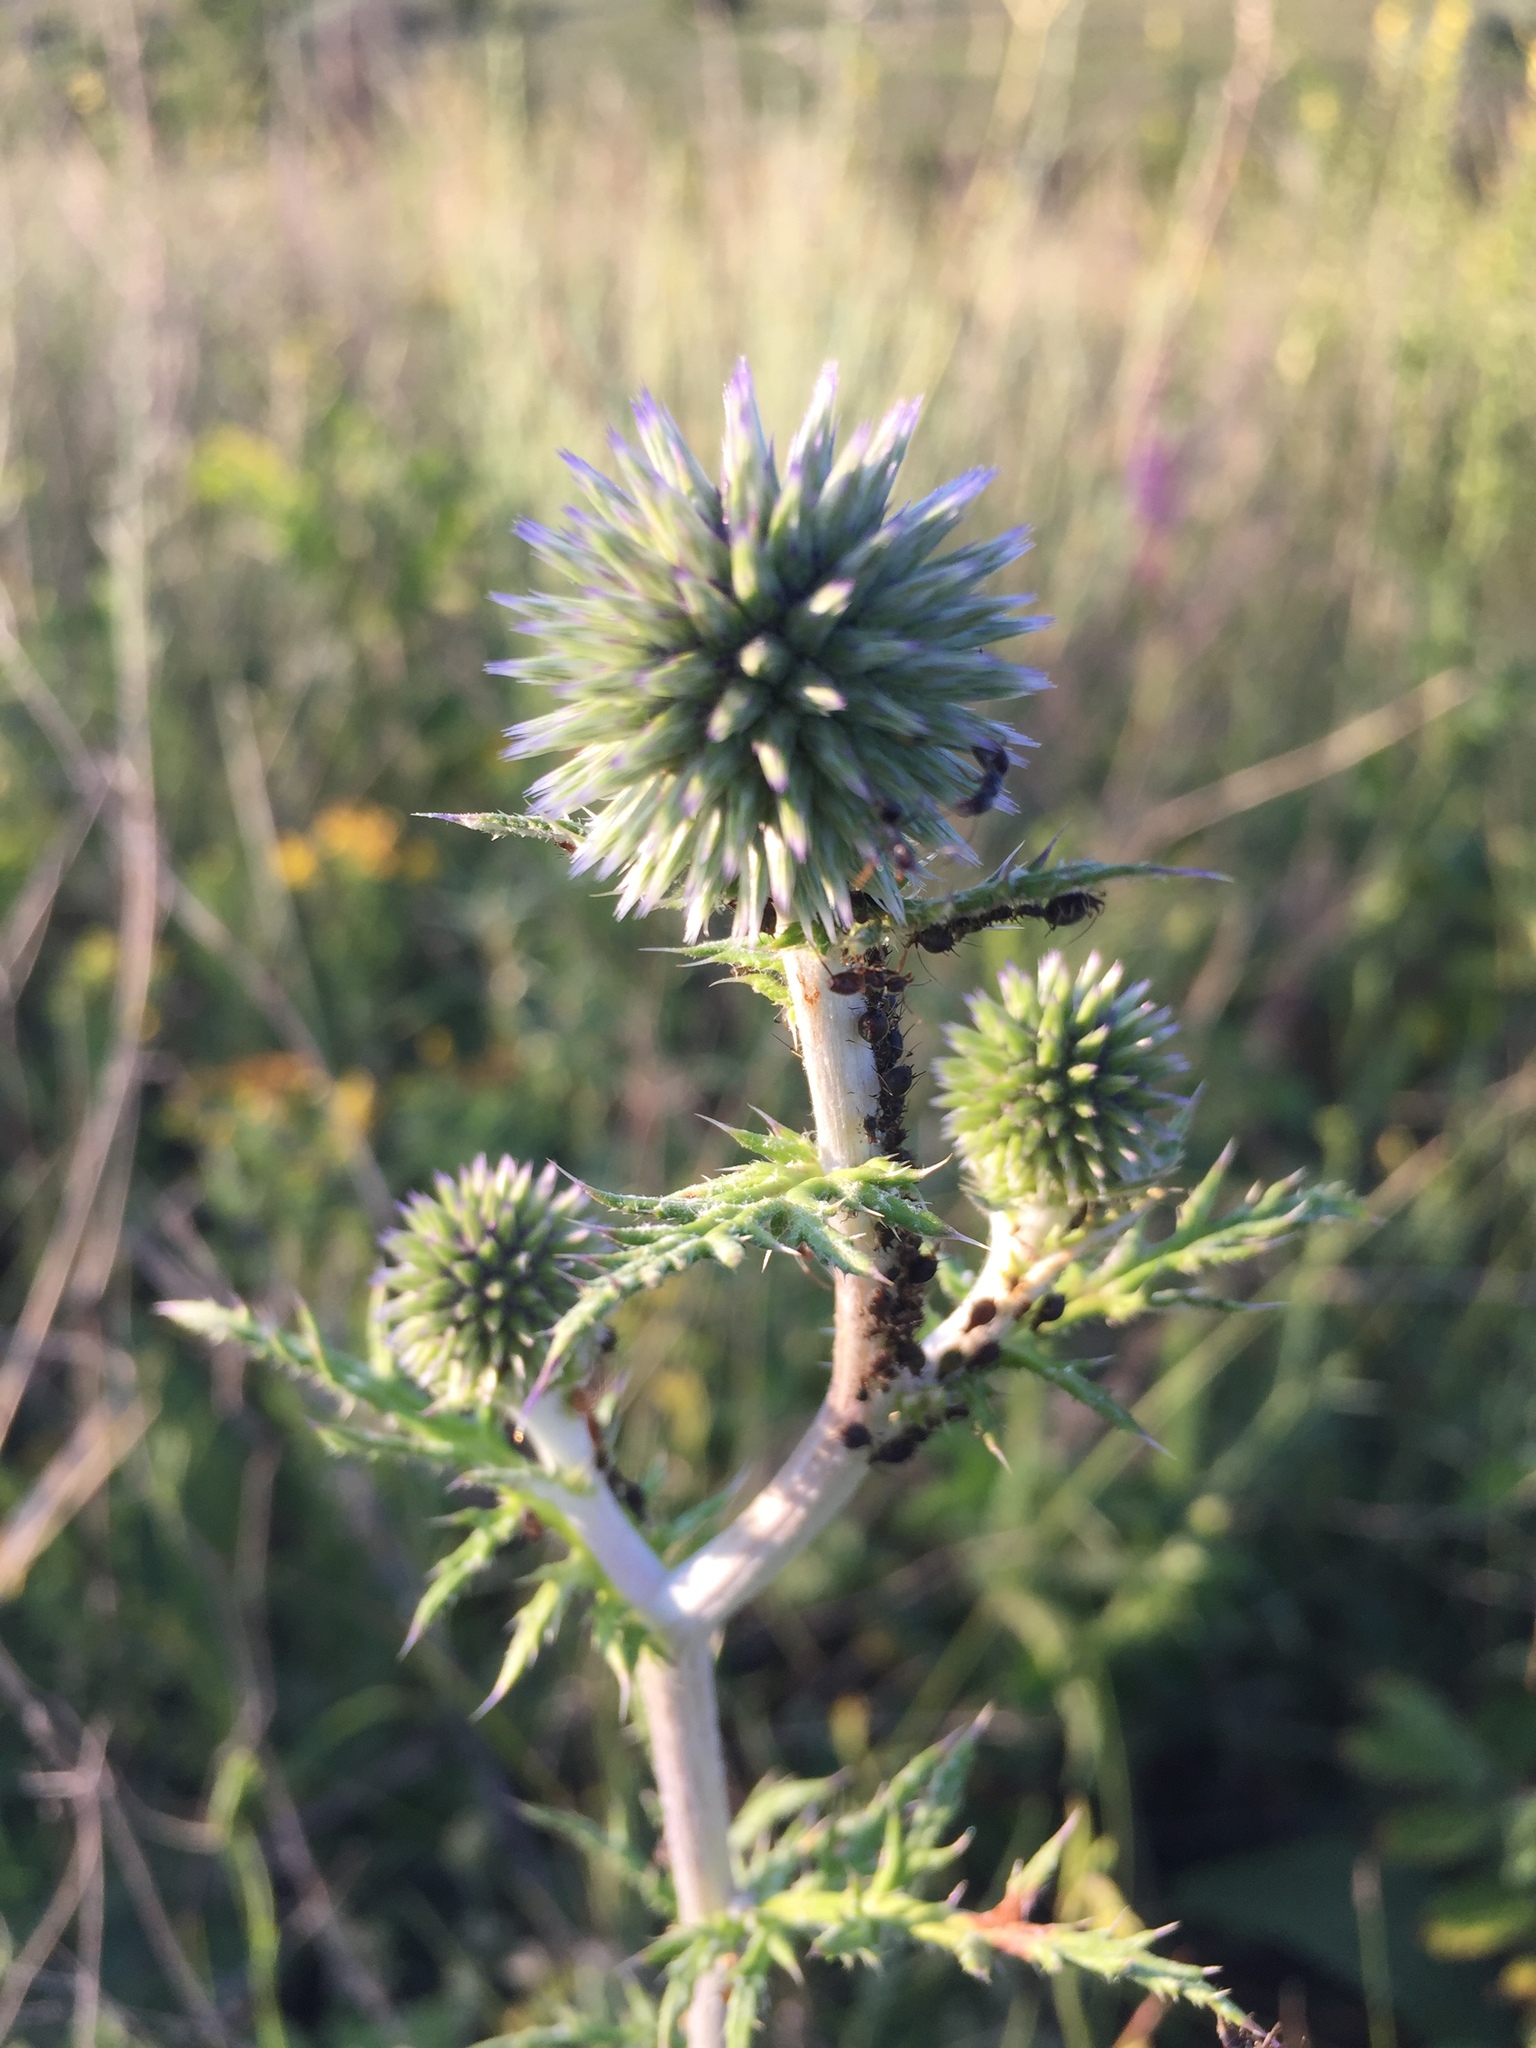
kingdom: Plantae
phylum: Tracheophyta
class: Magnoliopsida
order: Asterales
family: Asteraceae
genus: Echinops
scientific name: Echinops sphaerocephalus
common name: Glandular globe-thistle
